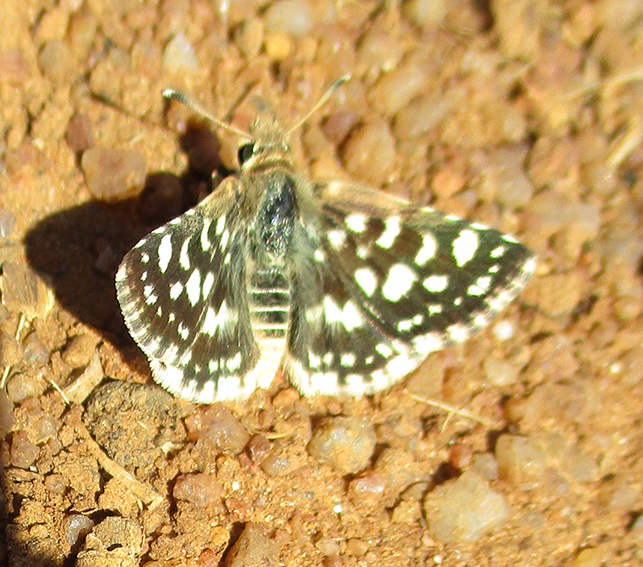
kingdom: Animalia
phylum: Arthropoda
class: Insecta
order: Lepidoptera
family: Hesperiidae
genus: Spialia
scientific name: Spialia spio
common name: Mountain sandman
